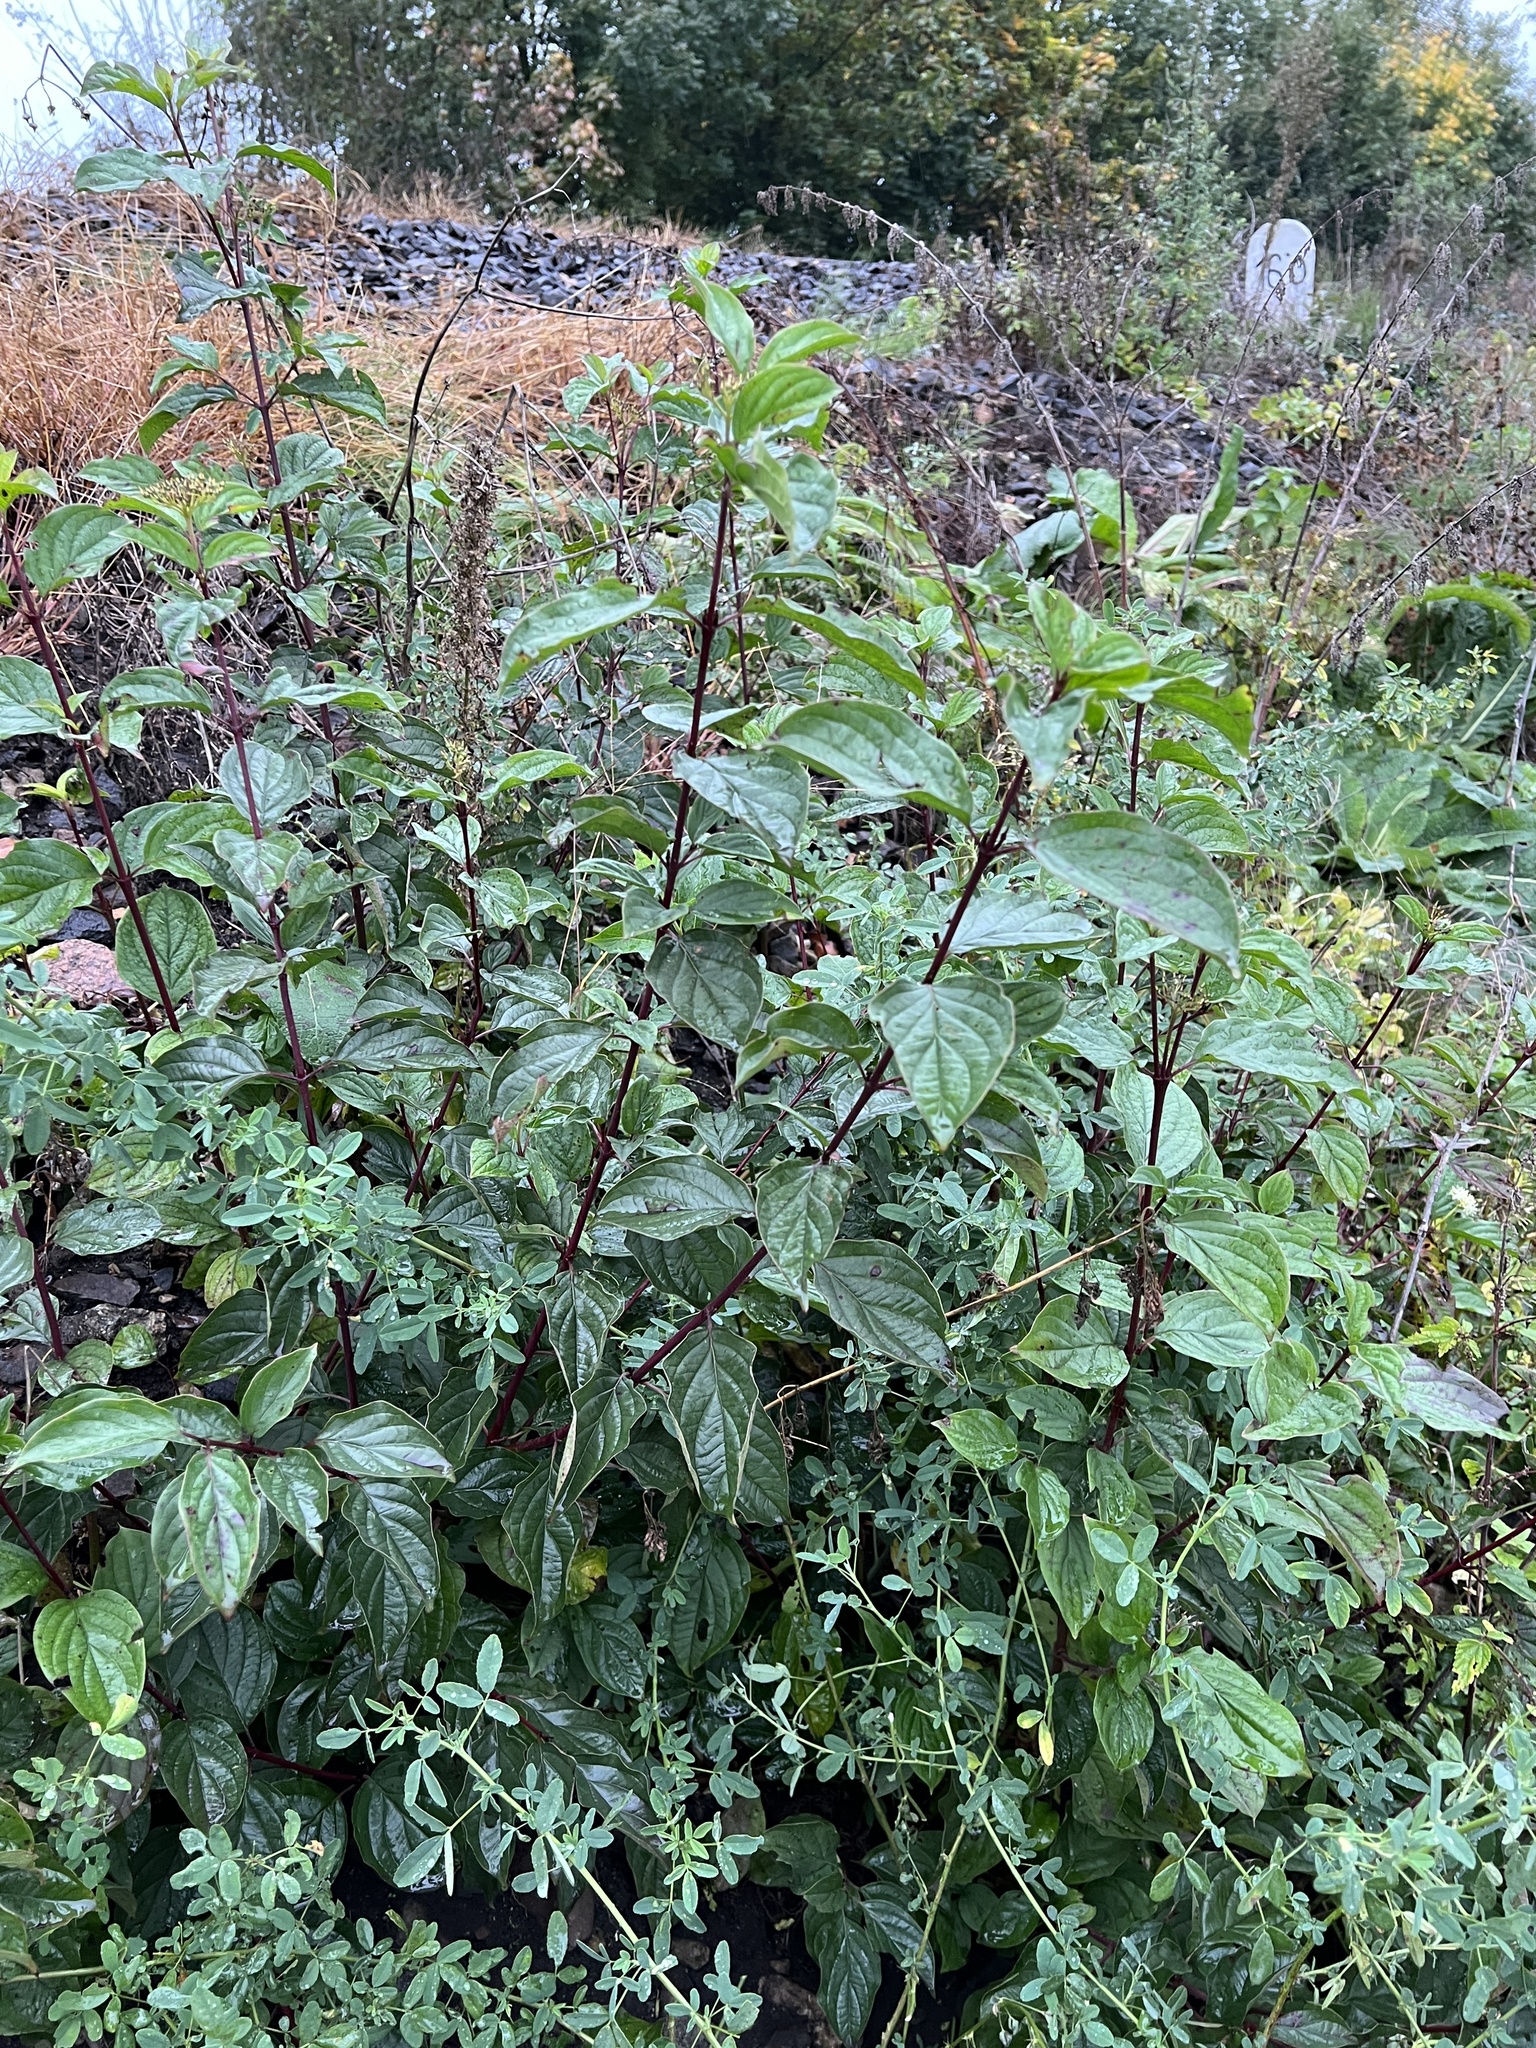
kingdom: Plantae
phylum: Tracheophyta
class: Magnoliopsida
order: Cornales
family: Cornaceae
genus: Cornus
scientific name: Cornus sanguinea
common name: Dogwood
